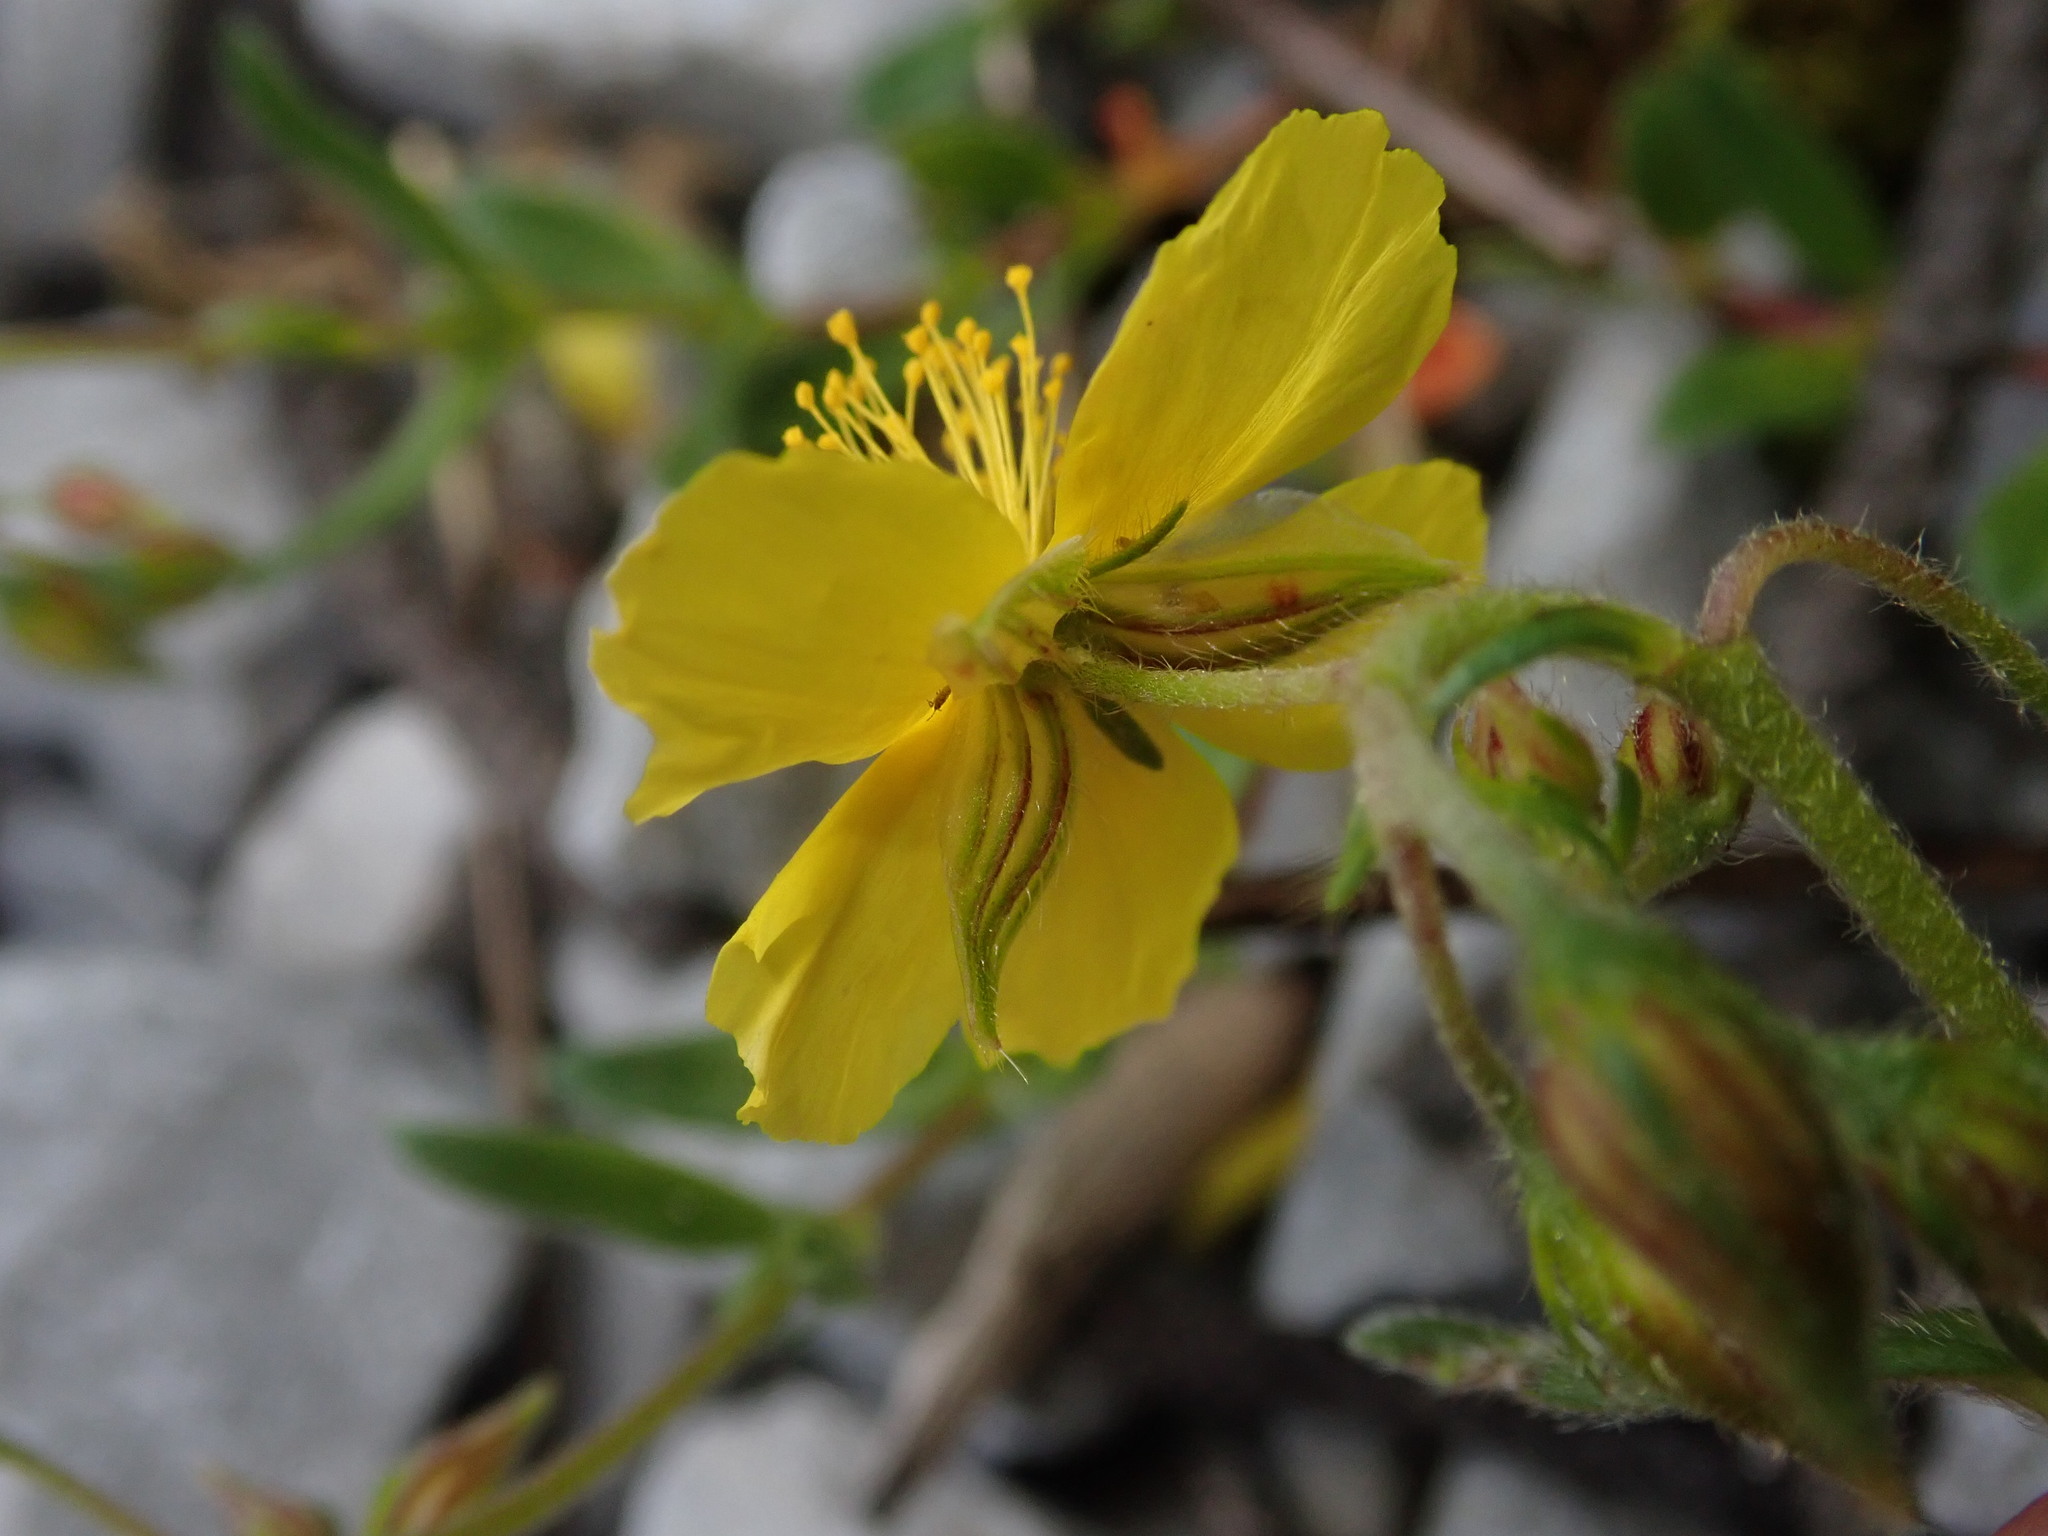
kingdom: Plantae
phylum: Tracheophyta
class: Magnoliopsida
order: Malvales
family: Cistaceae
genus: Helianthemum
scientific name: Helianthemum nummularium
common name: Common rock-rose
